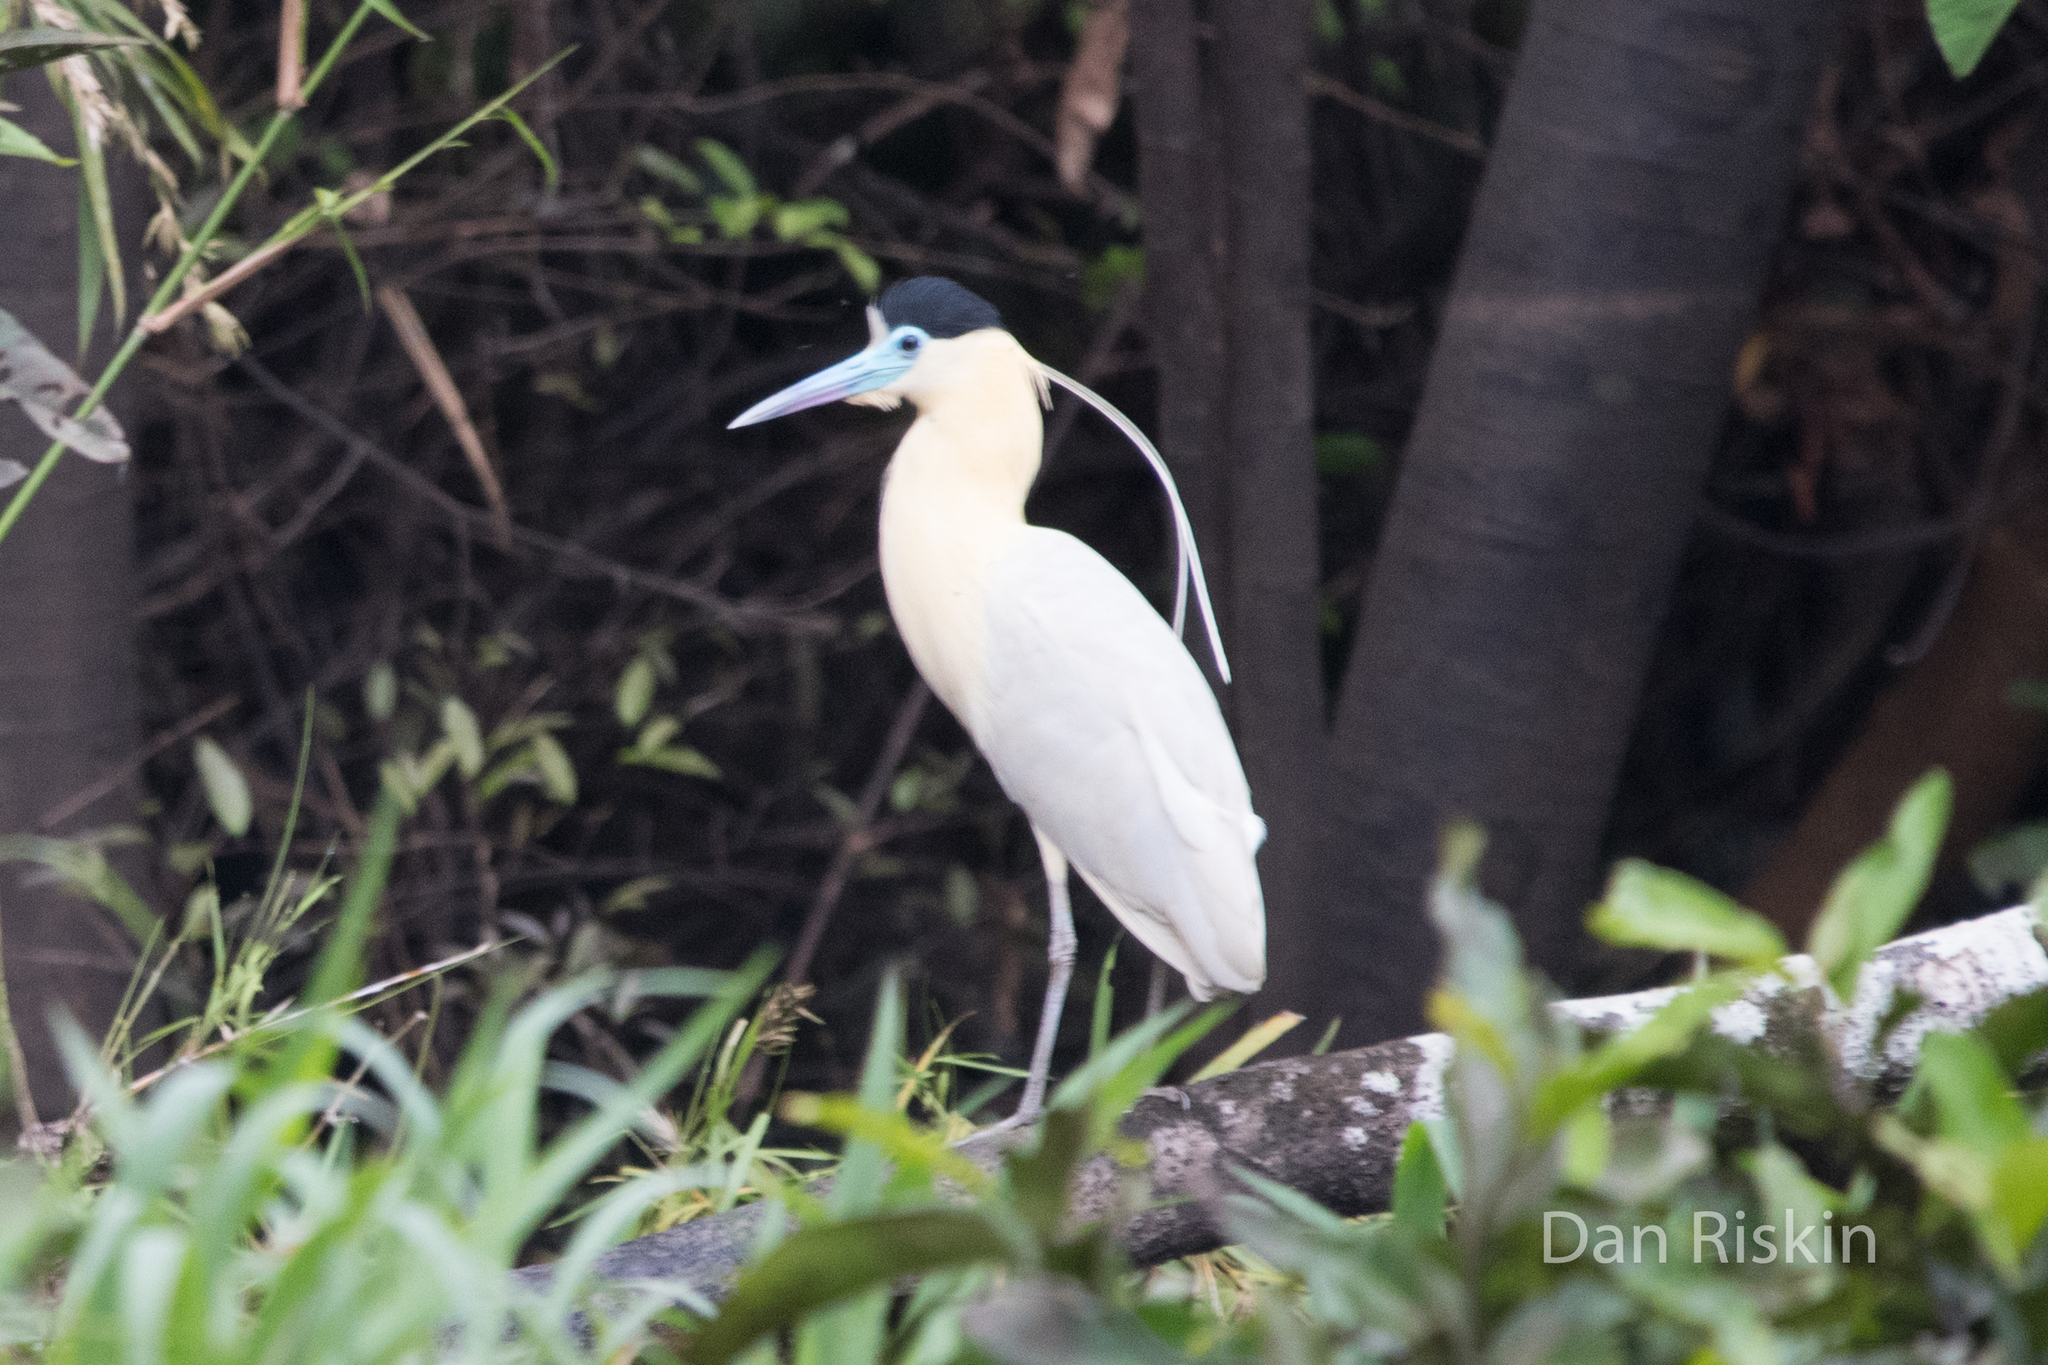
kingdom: Animalia
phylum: Chordata
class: Aves
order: Pelecaniformes
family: Ardeidae
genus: Pilherodius
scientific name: Pilherodius pileatus
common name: Capped heron
